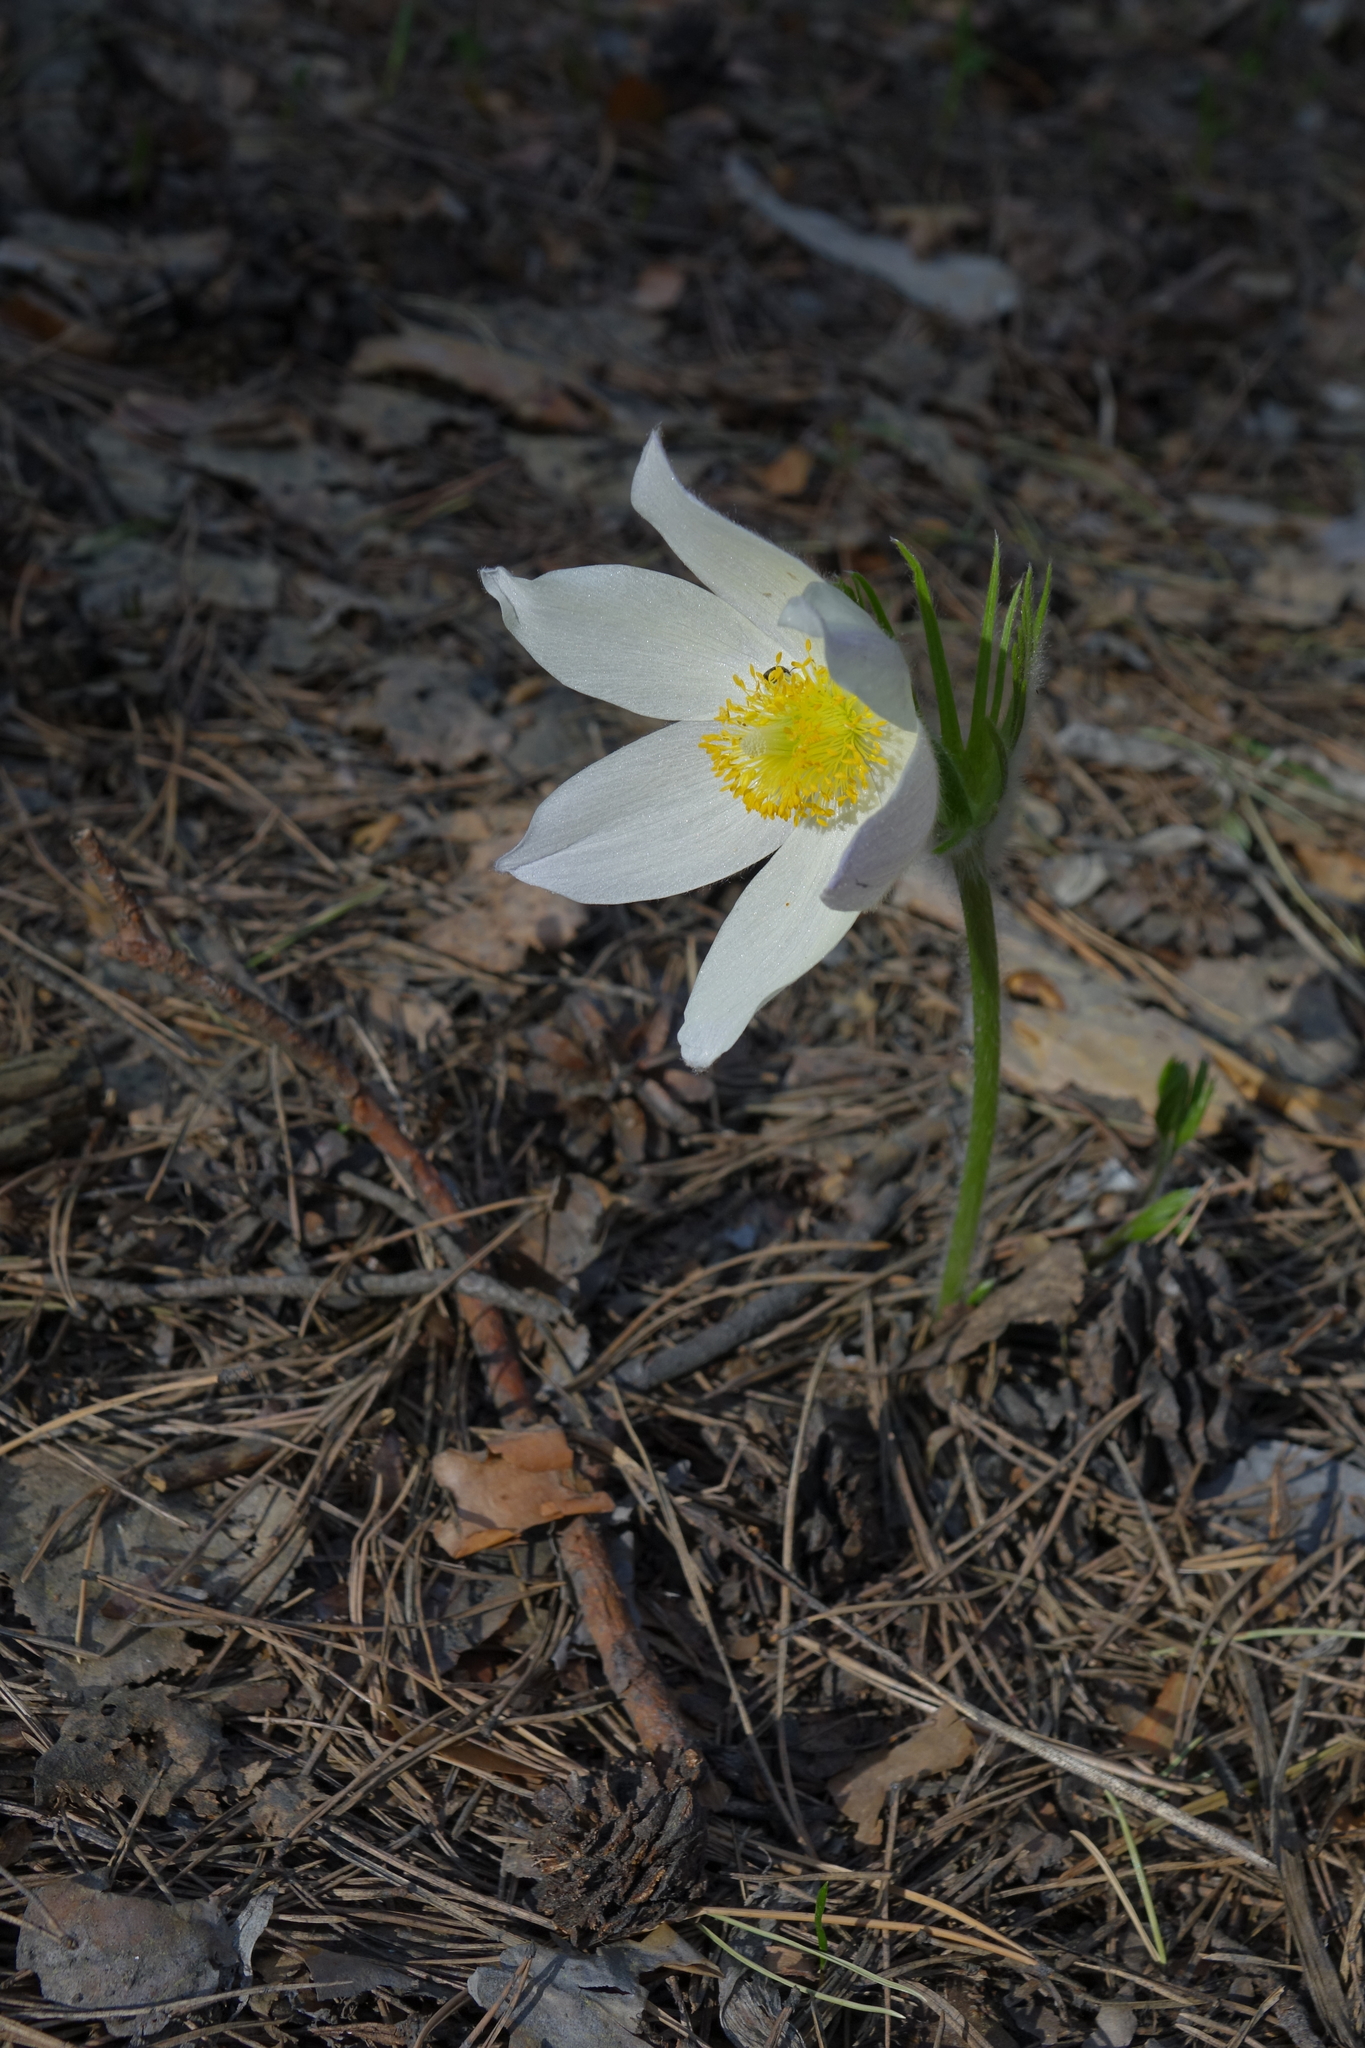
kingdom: Plantae
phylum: Tracheophyta
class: Magnoliopsida
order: Ranunculales
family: Ranunculaceae
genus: Pulsatilla
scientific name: Pulsatilla patens
